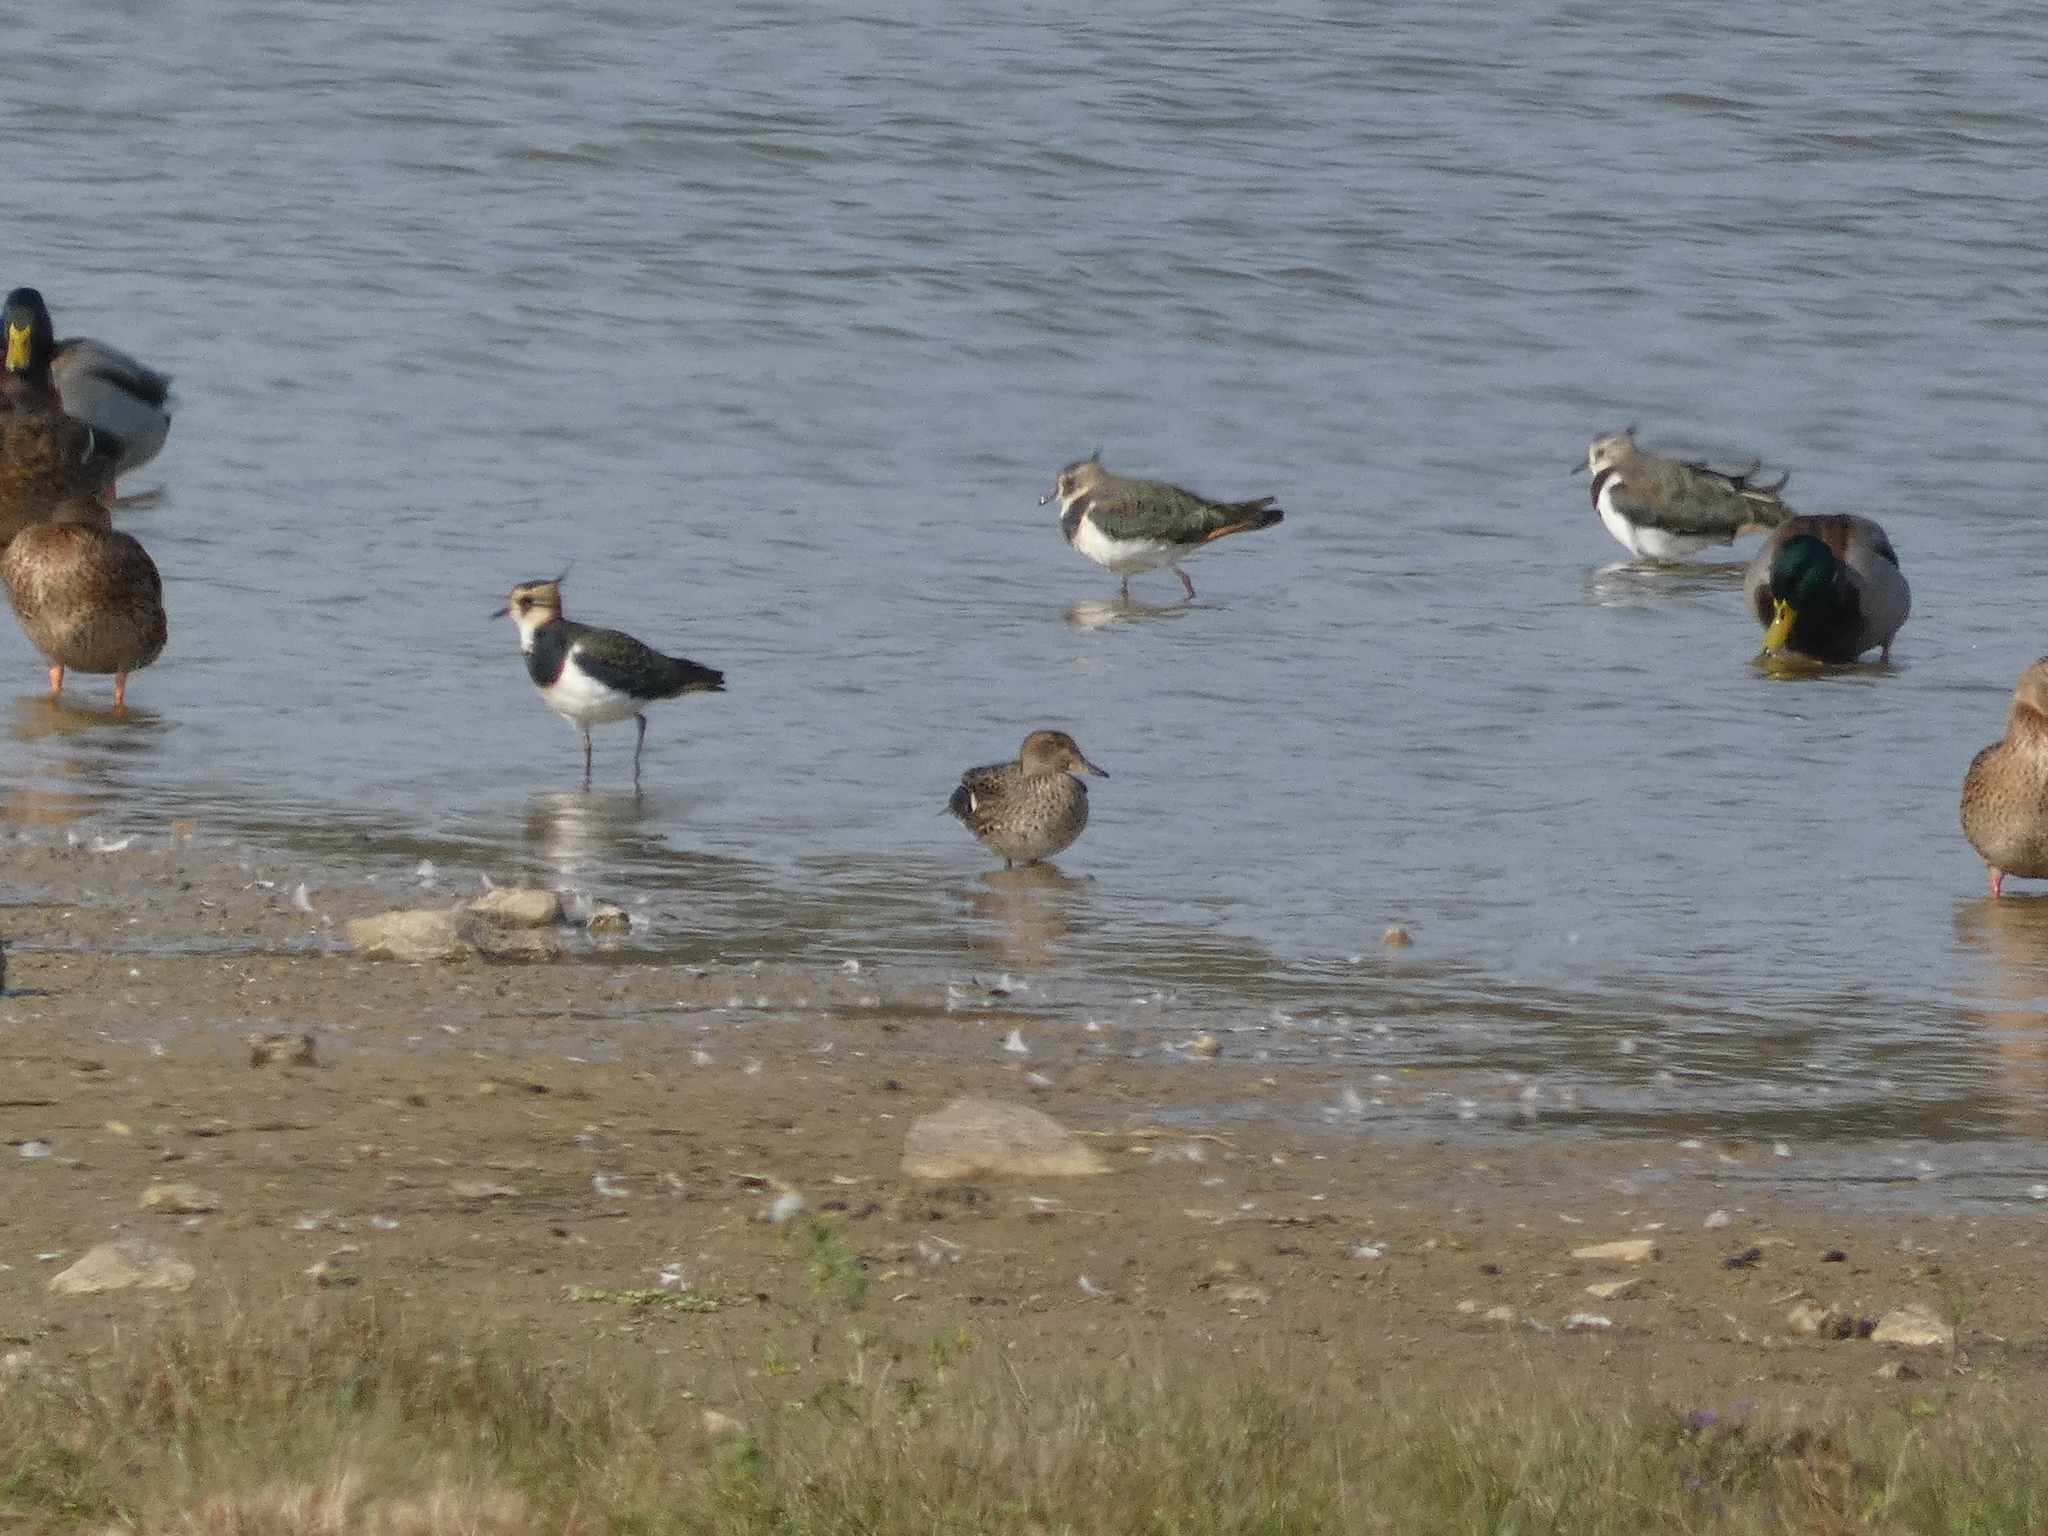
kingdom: Animalia
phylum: Chordata
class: Aves
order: Anseriformes
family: Anatidae
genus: Anas
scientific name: Anas crecca
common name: Eurasian teal
